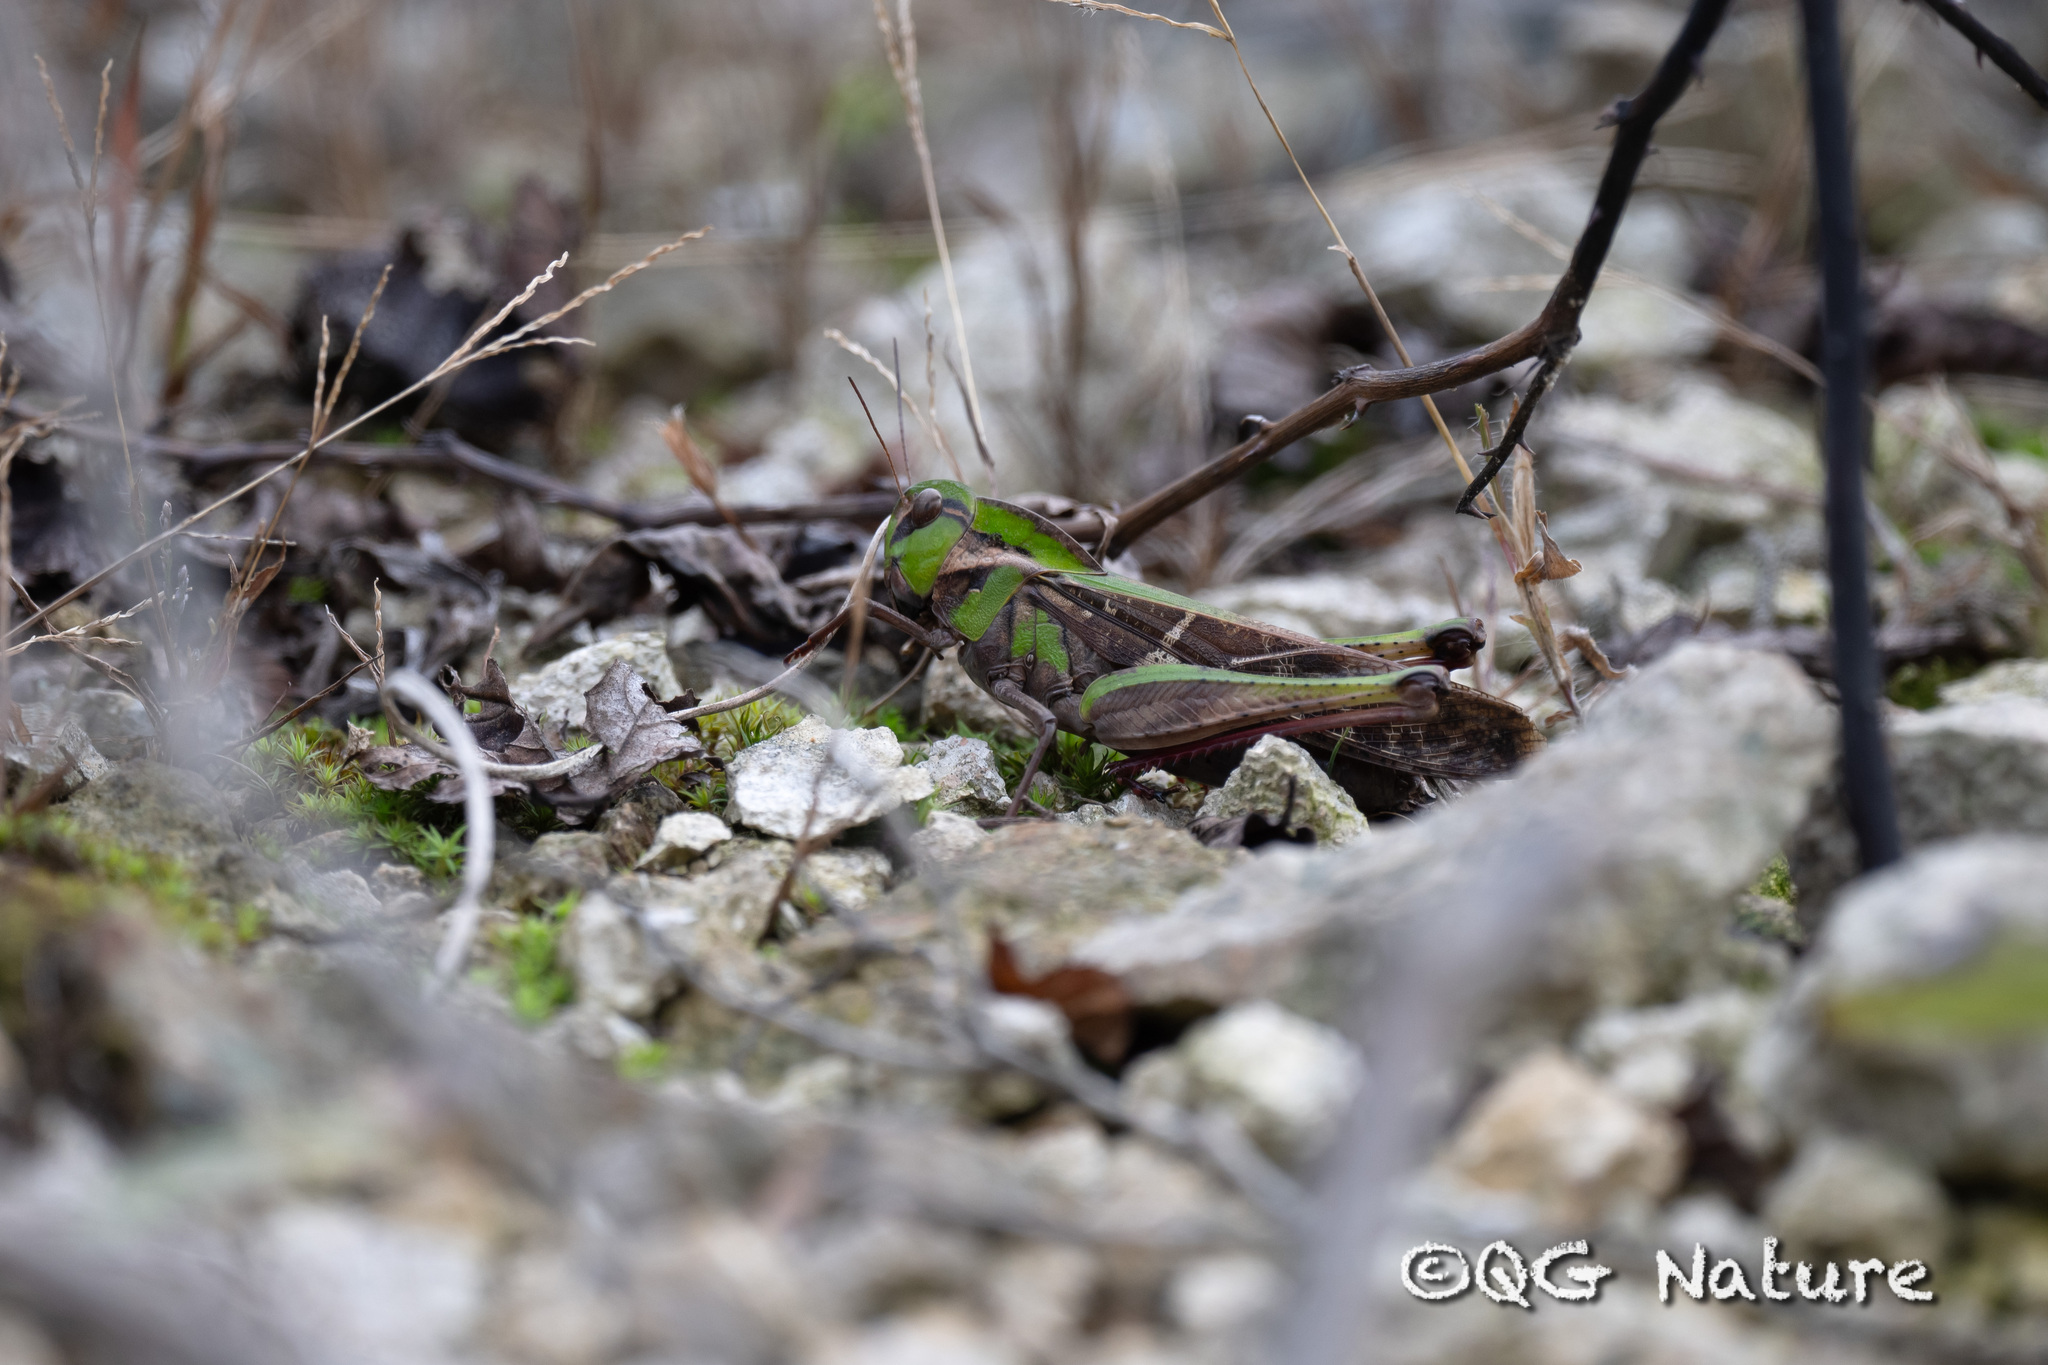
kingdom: Animalia
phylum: Arthropoda
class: Insecta
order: Orthoptera
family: Acrididae
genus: Gastrimargus
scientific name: Gastrimargus marmoratus
